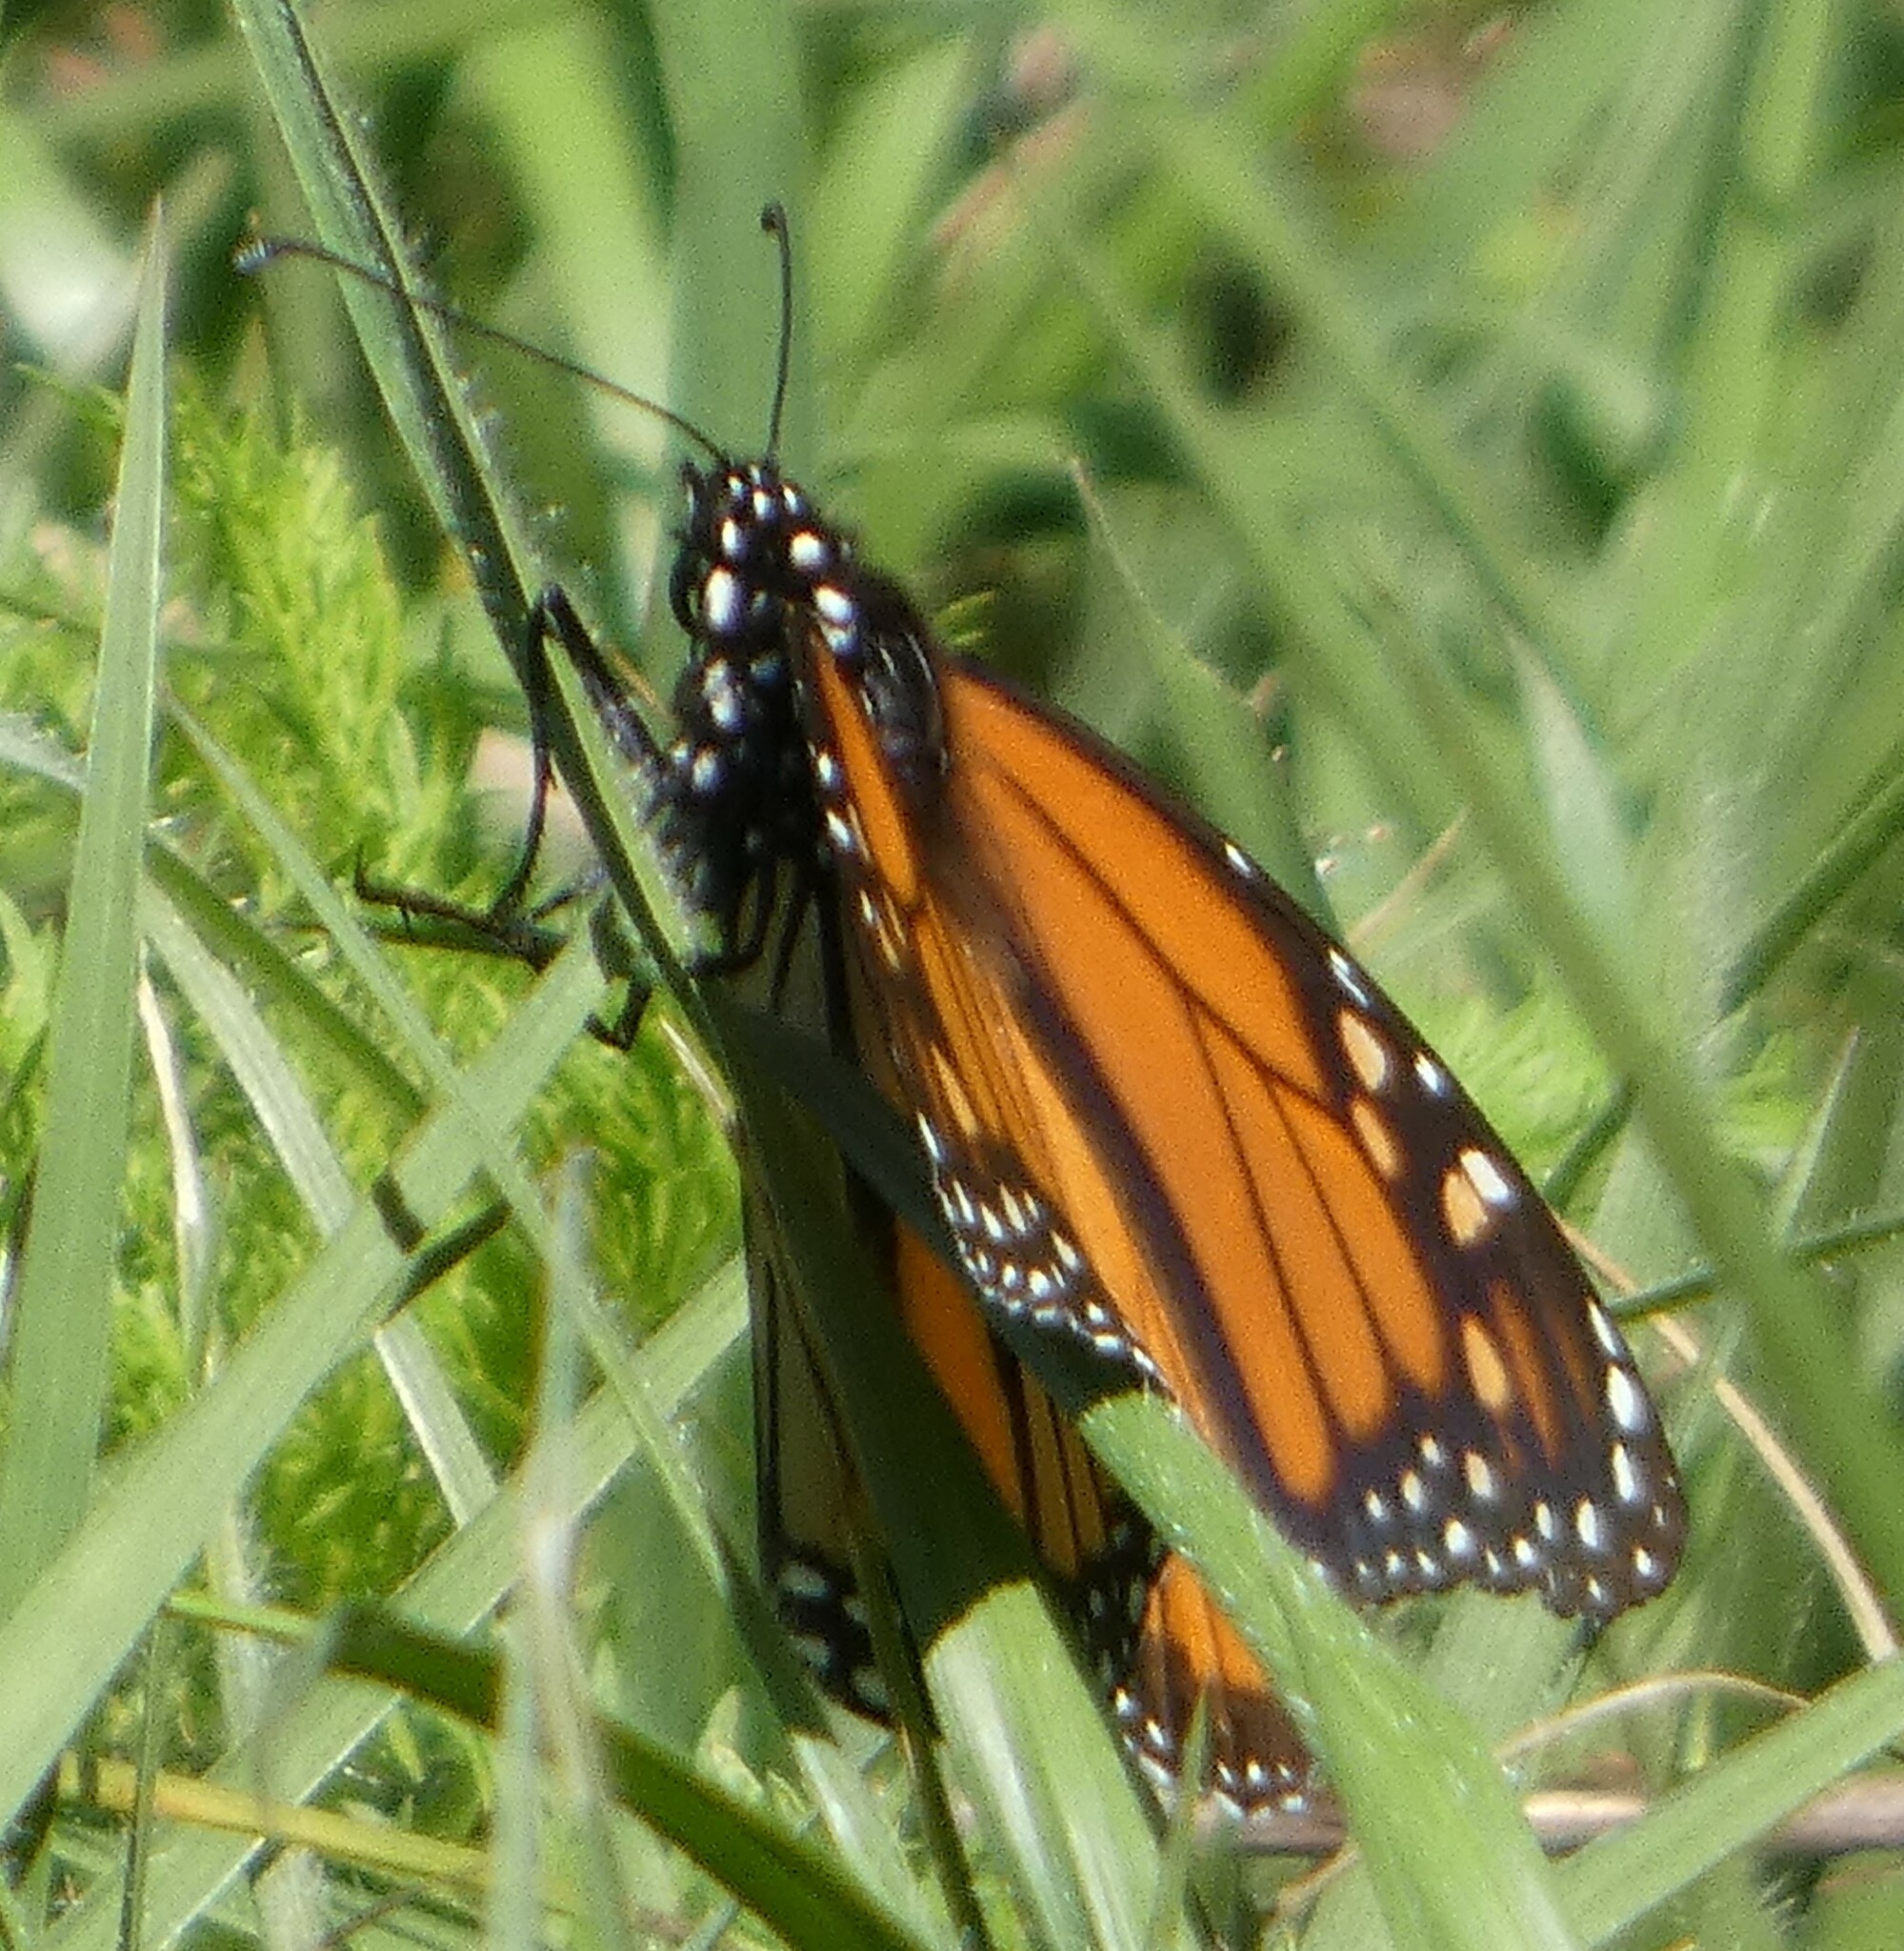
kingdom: Animalia
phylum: Arthropoda
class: Insecta
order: Lepidoptera
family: Nymphalidae
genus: Danaus
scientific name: Danaus plexippus
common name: Monarch
